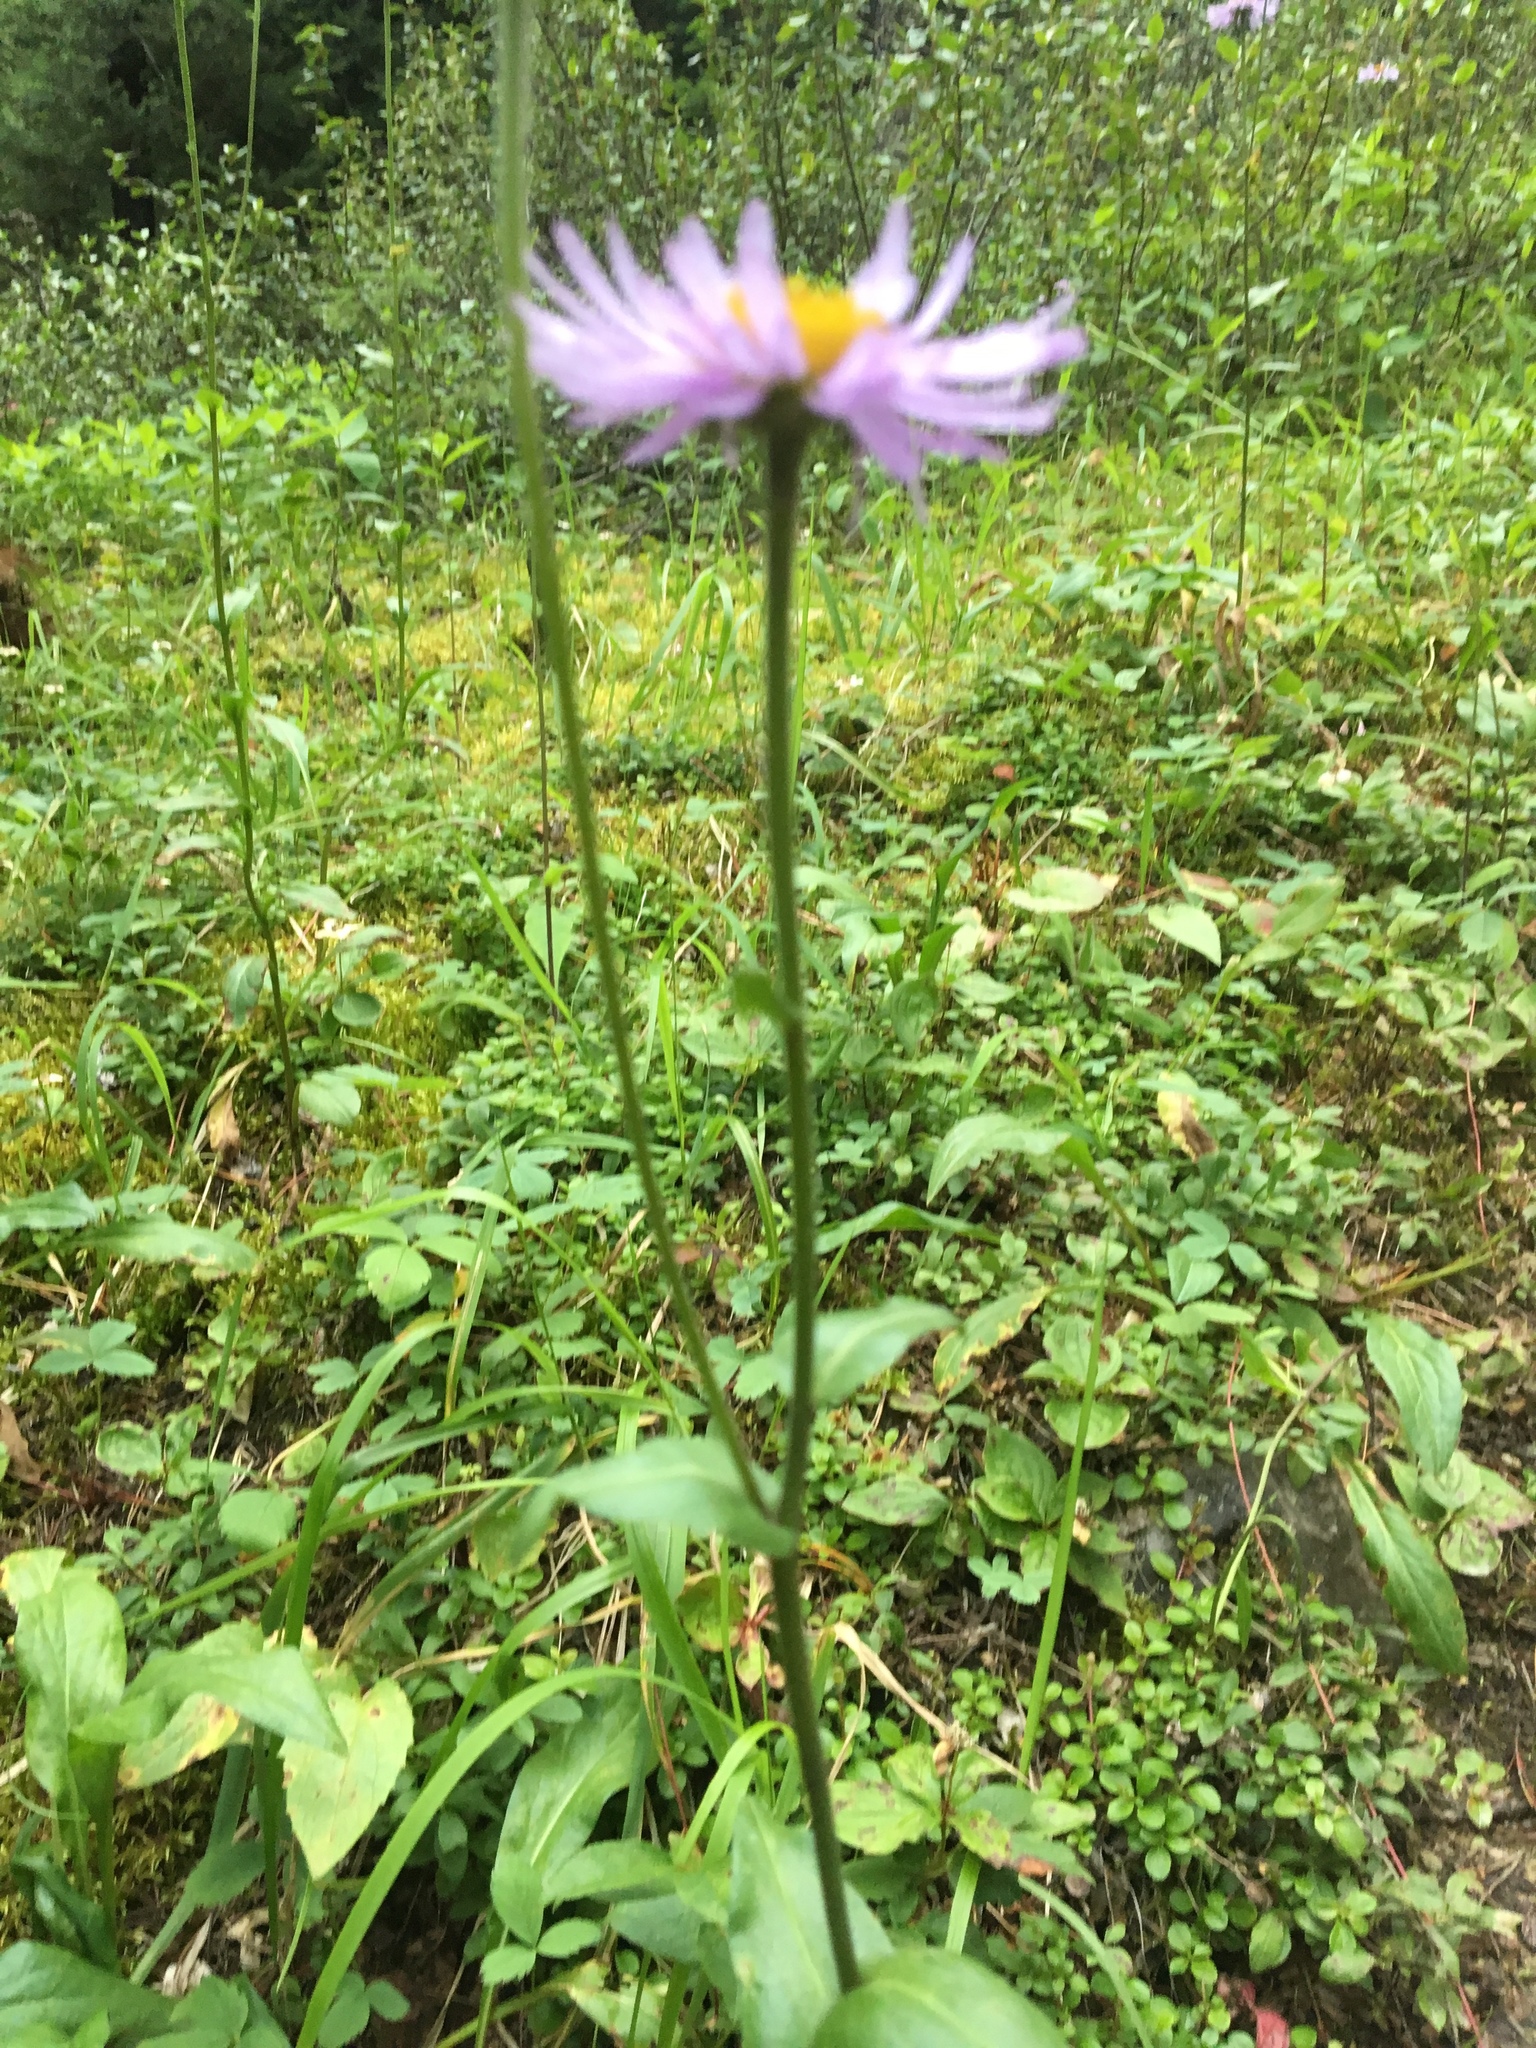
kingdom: Plantae
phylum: Tracheophyta
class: Magnoliopsida
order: Asterales
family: Asteraceae
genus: Erigeron
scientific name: Erigeron glacialis
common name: Subalpine fleabane
